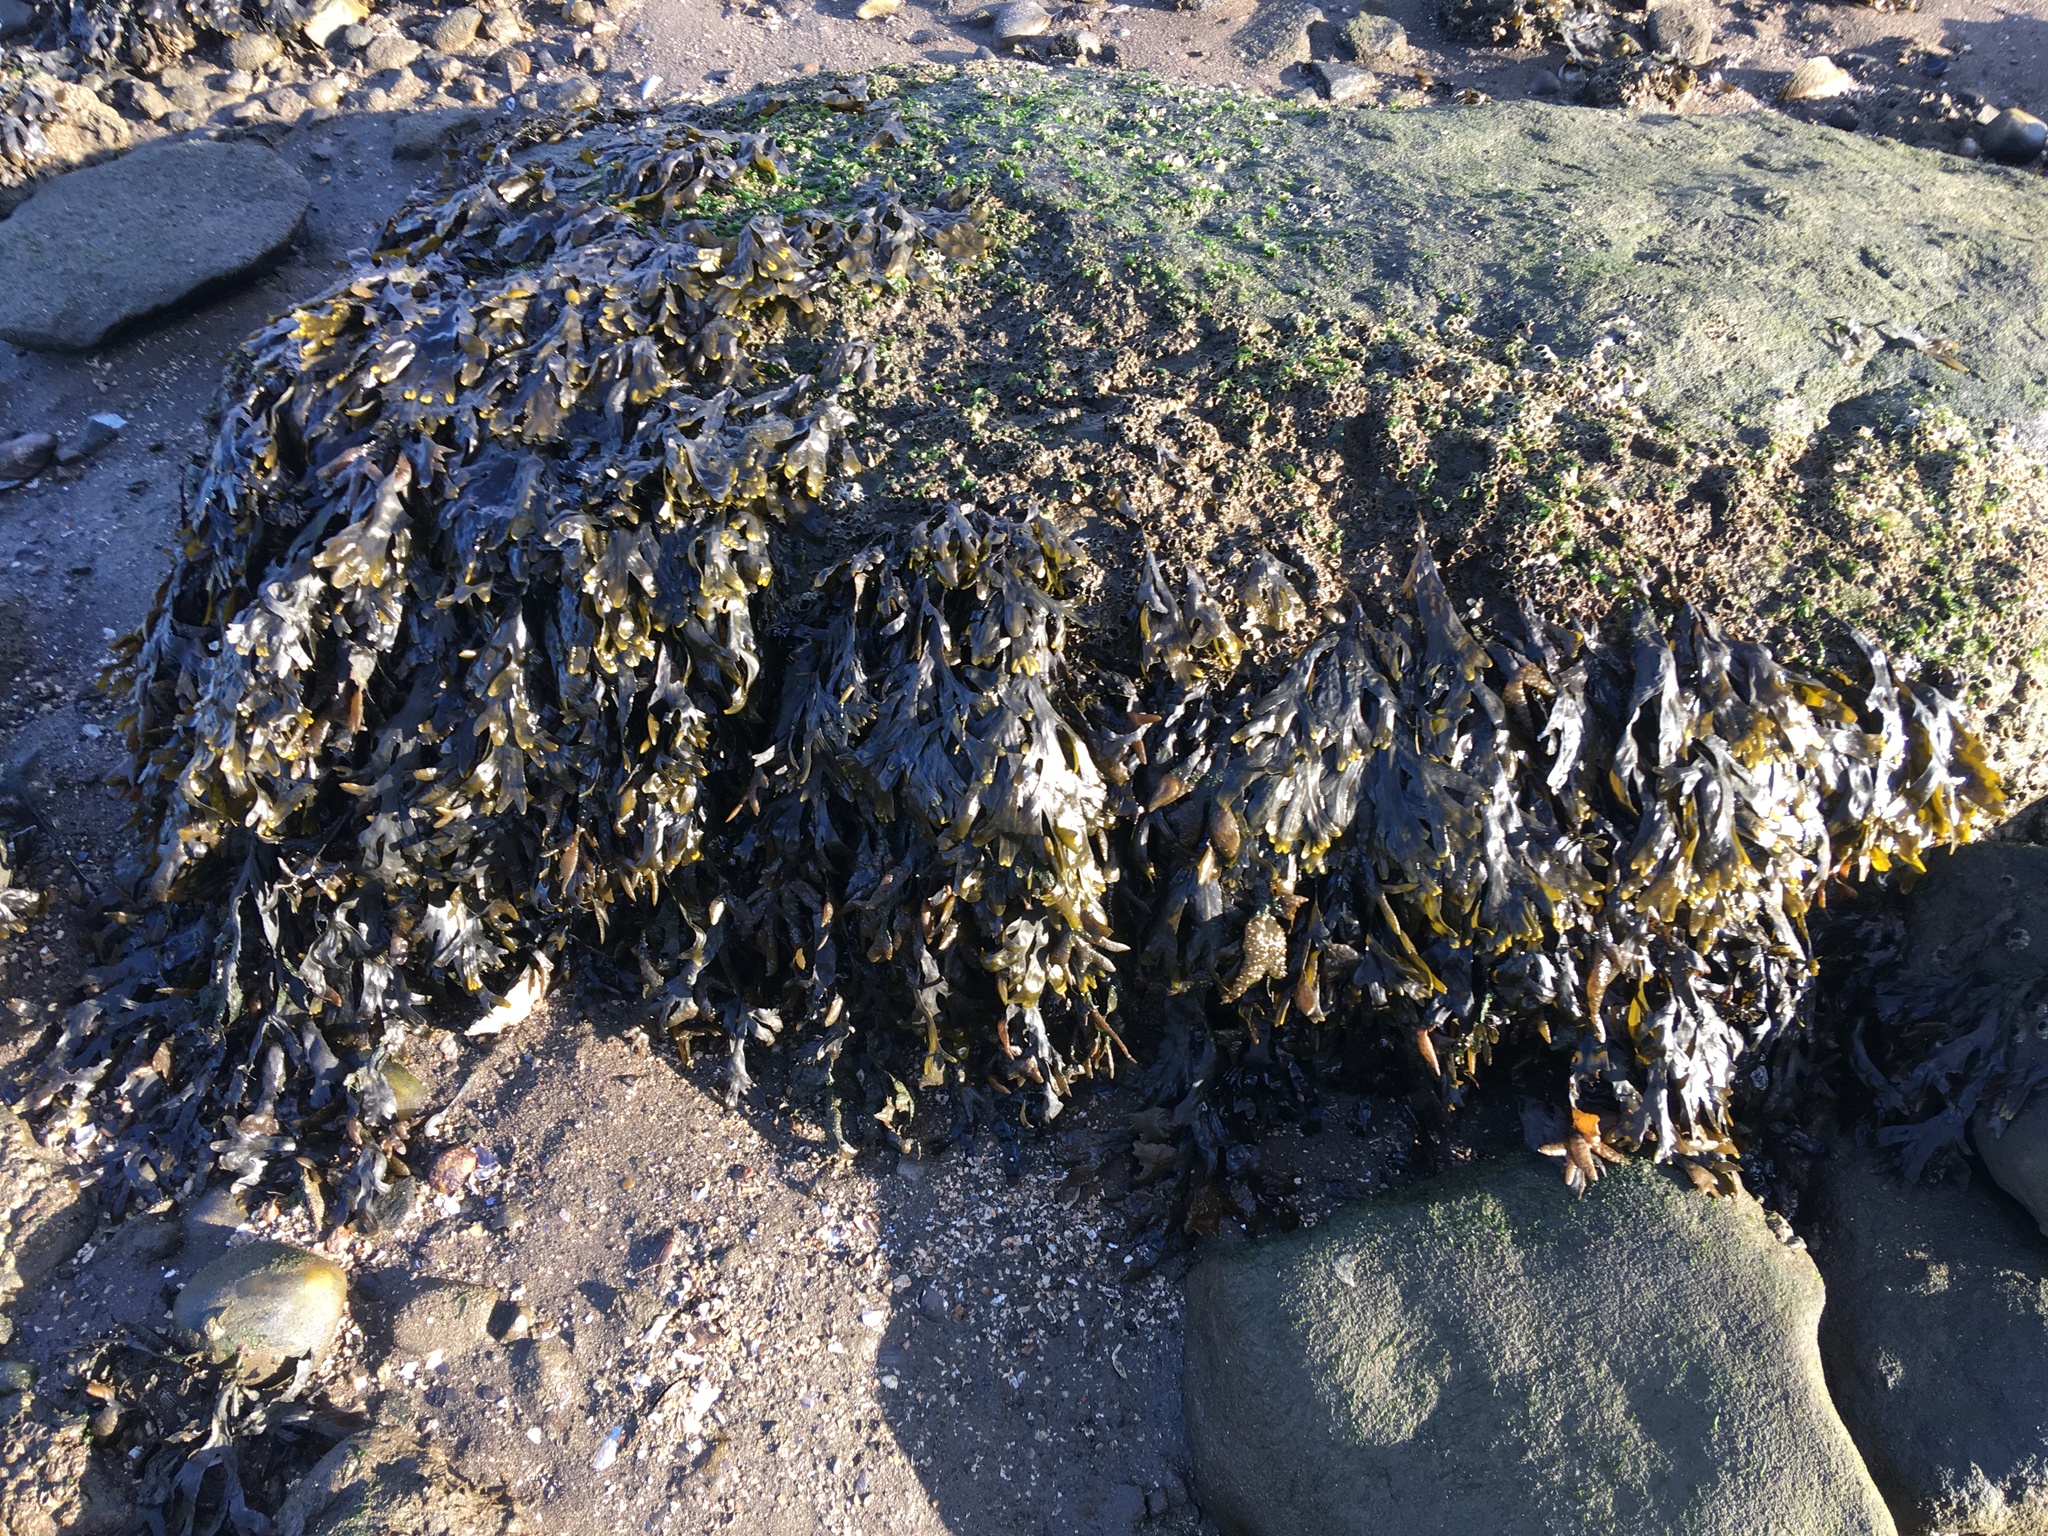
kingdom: Chromista
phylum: Ochrophyta
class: Phaeophyceae
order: Fucales
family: Fucaceae
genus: Fucus
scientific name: Fucus vesiculosus
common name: Bladder wrack
